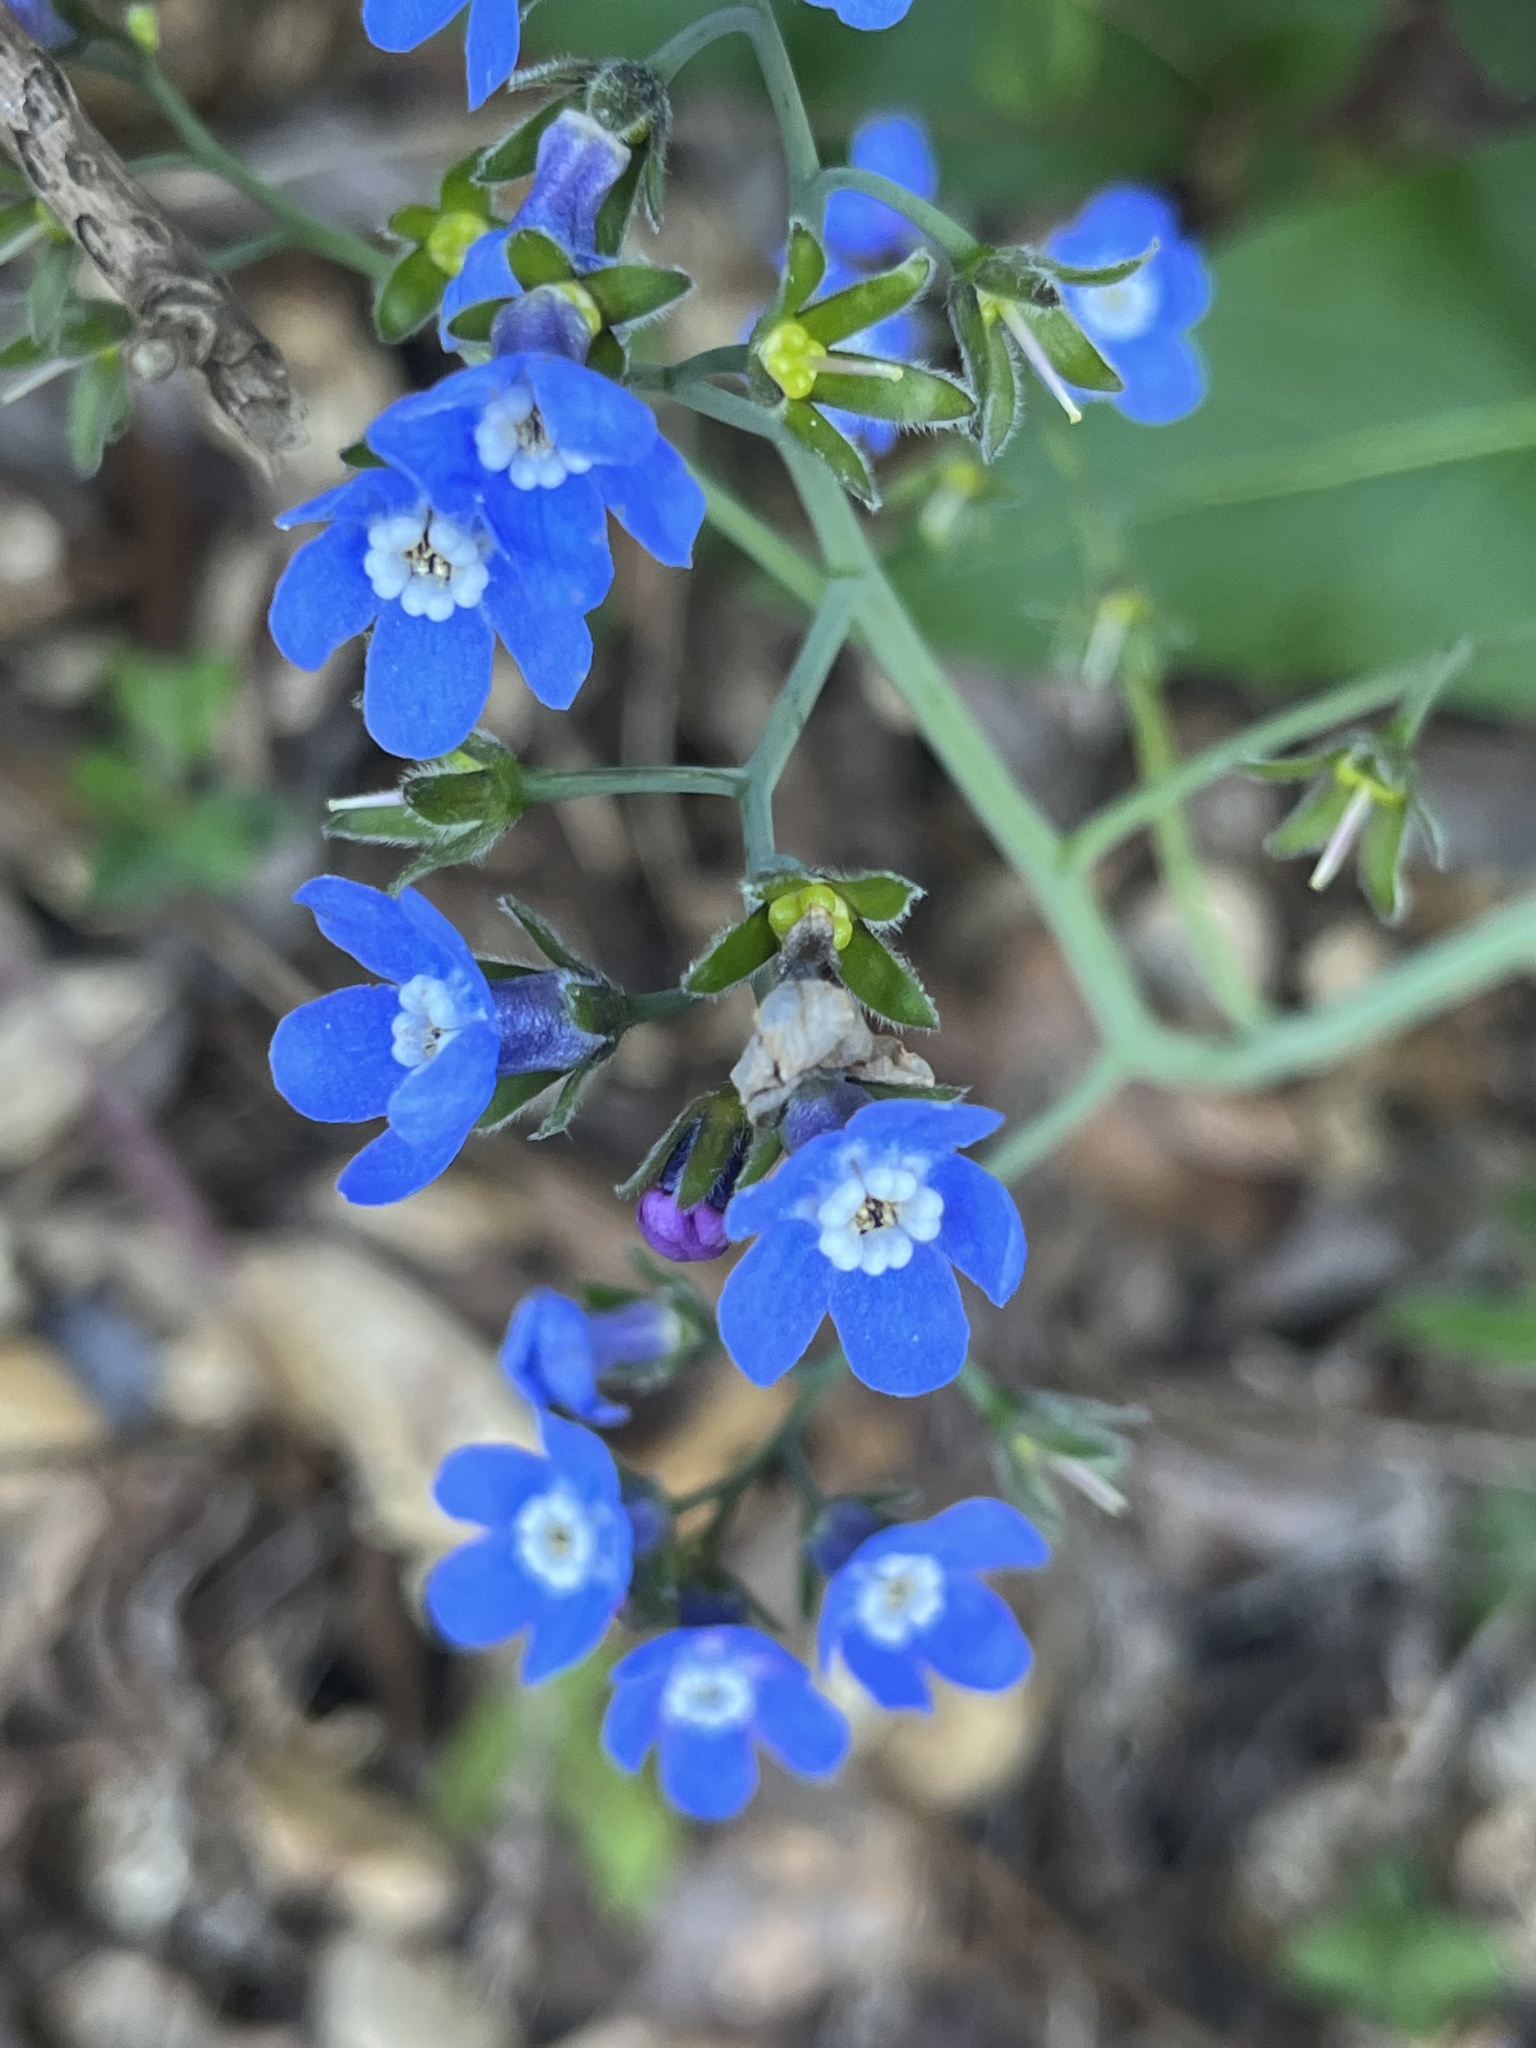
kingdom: Plantae
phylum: Tracheophyta
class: Magnoliopsida
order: Boraginales
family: Boraginaceae
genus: Adelinia
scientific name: Adelinia grande
